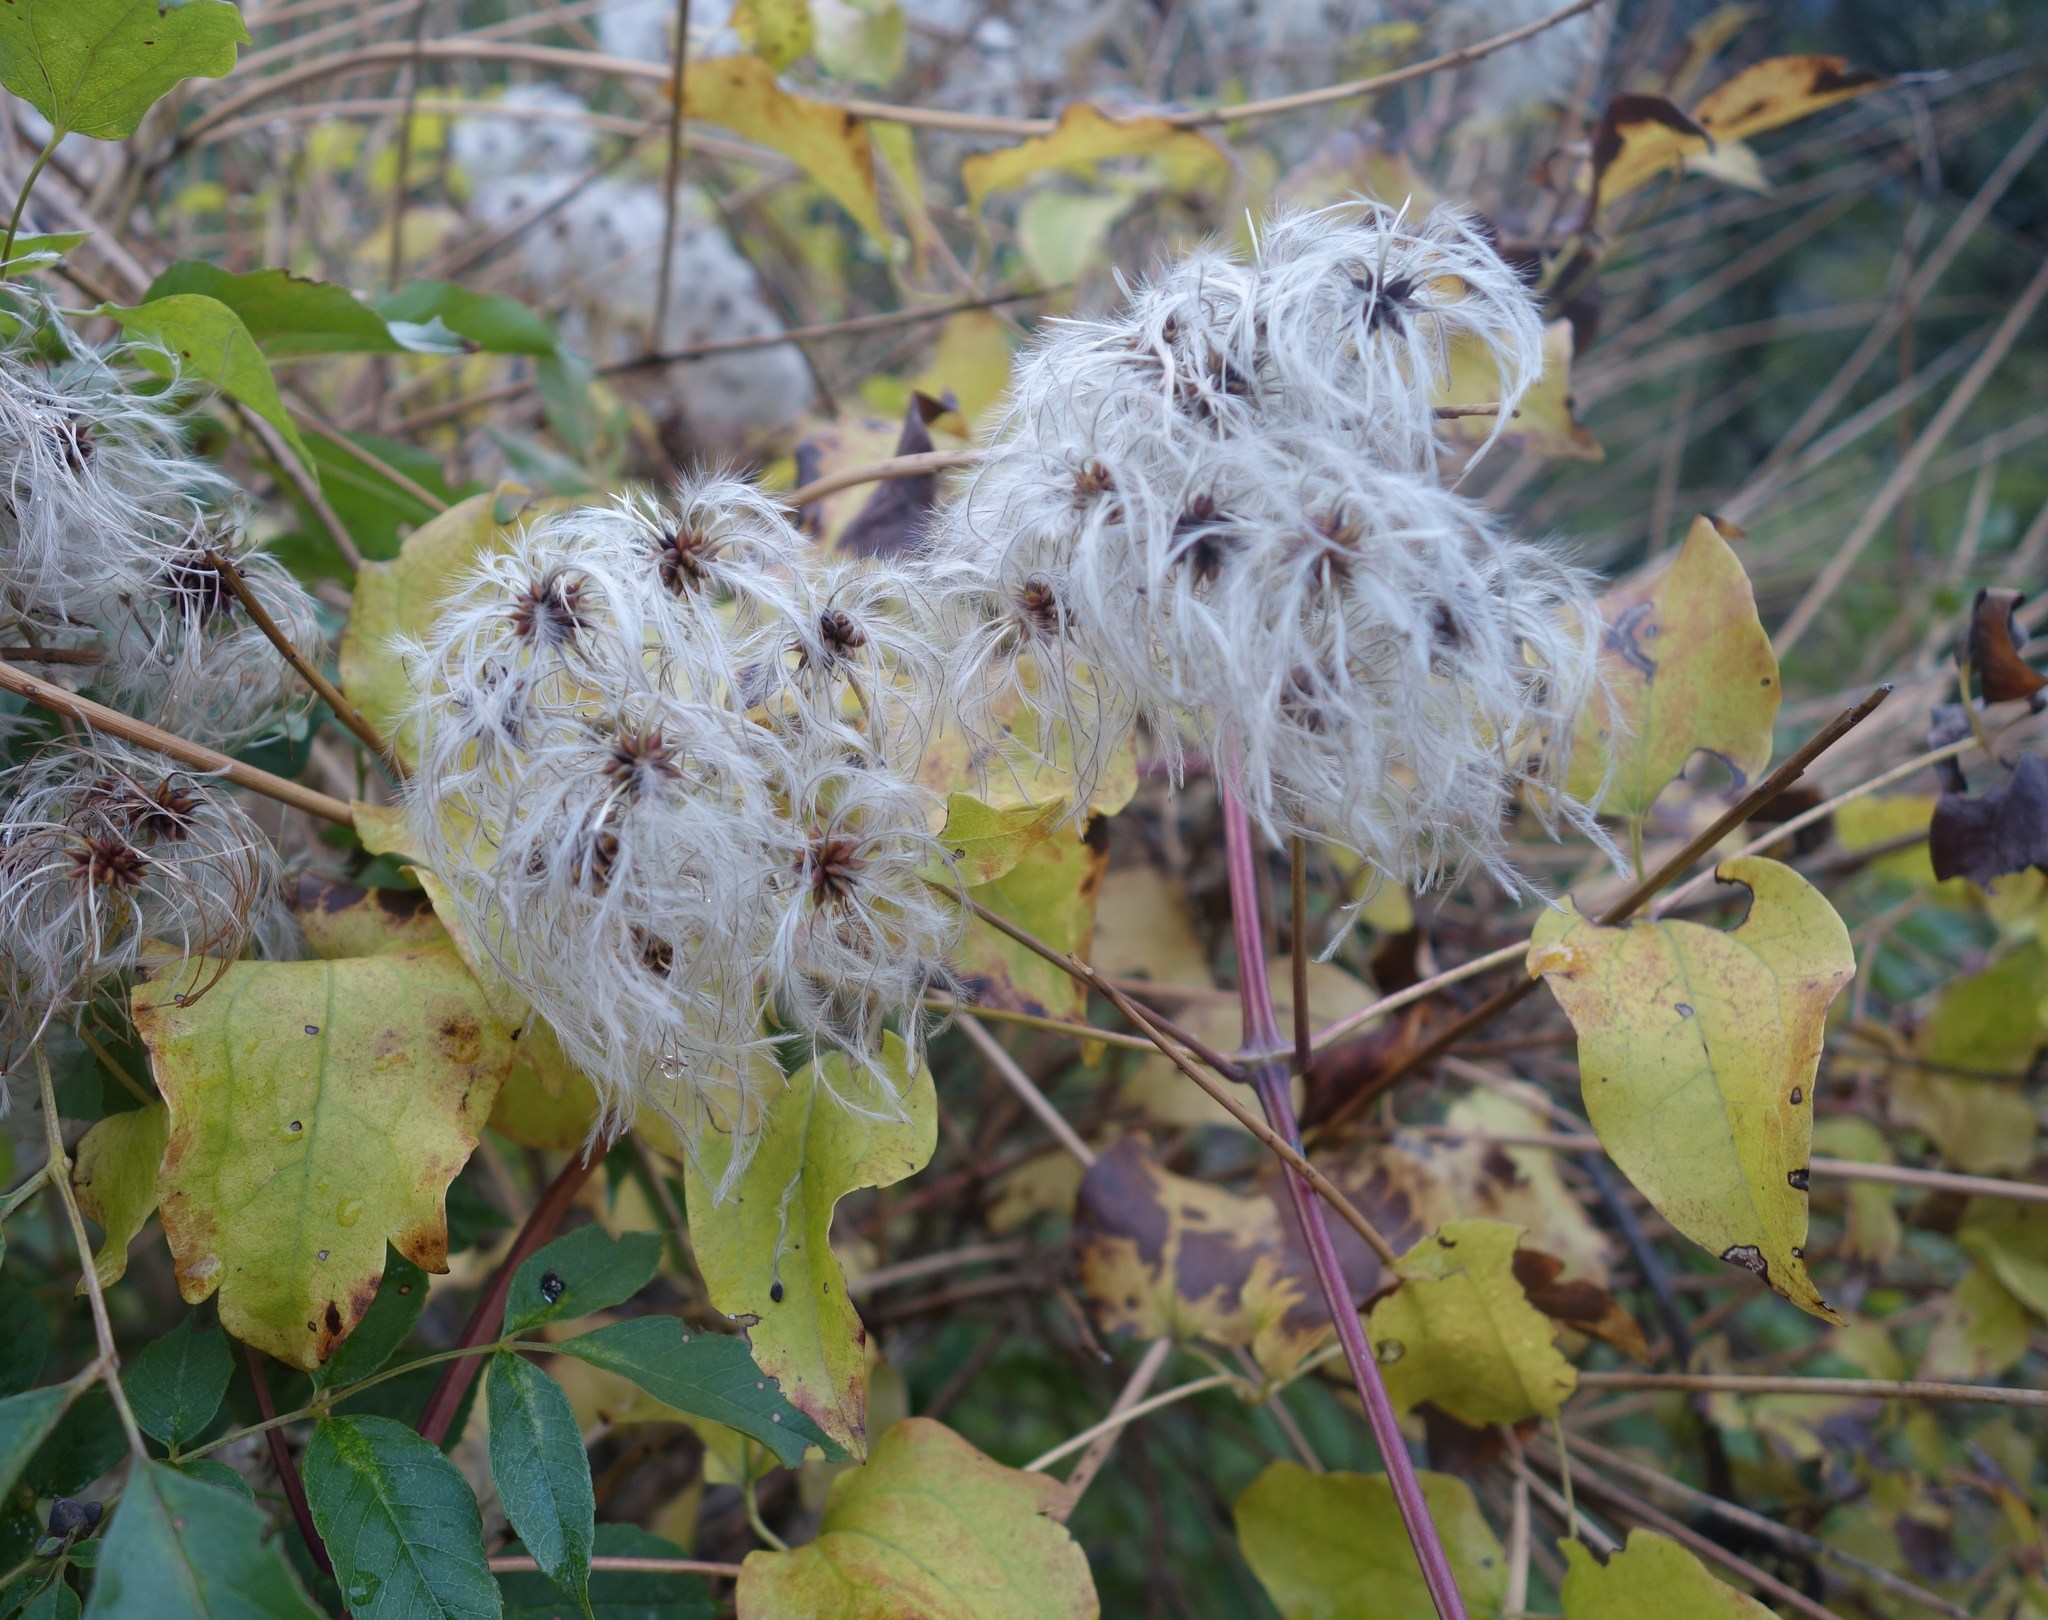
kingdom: Plantae
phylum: Tracheophyta
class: Magnoliopsida
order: Ranunculales
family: Ranunculaceae
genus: Clematis
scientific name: Clematis vitalba
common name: Evergreen clematis
